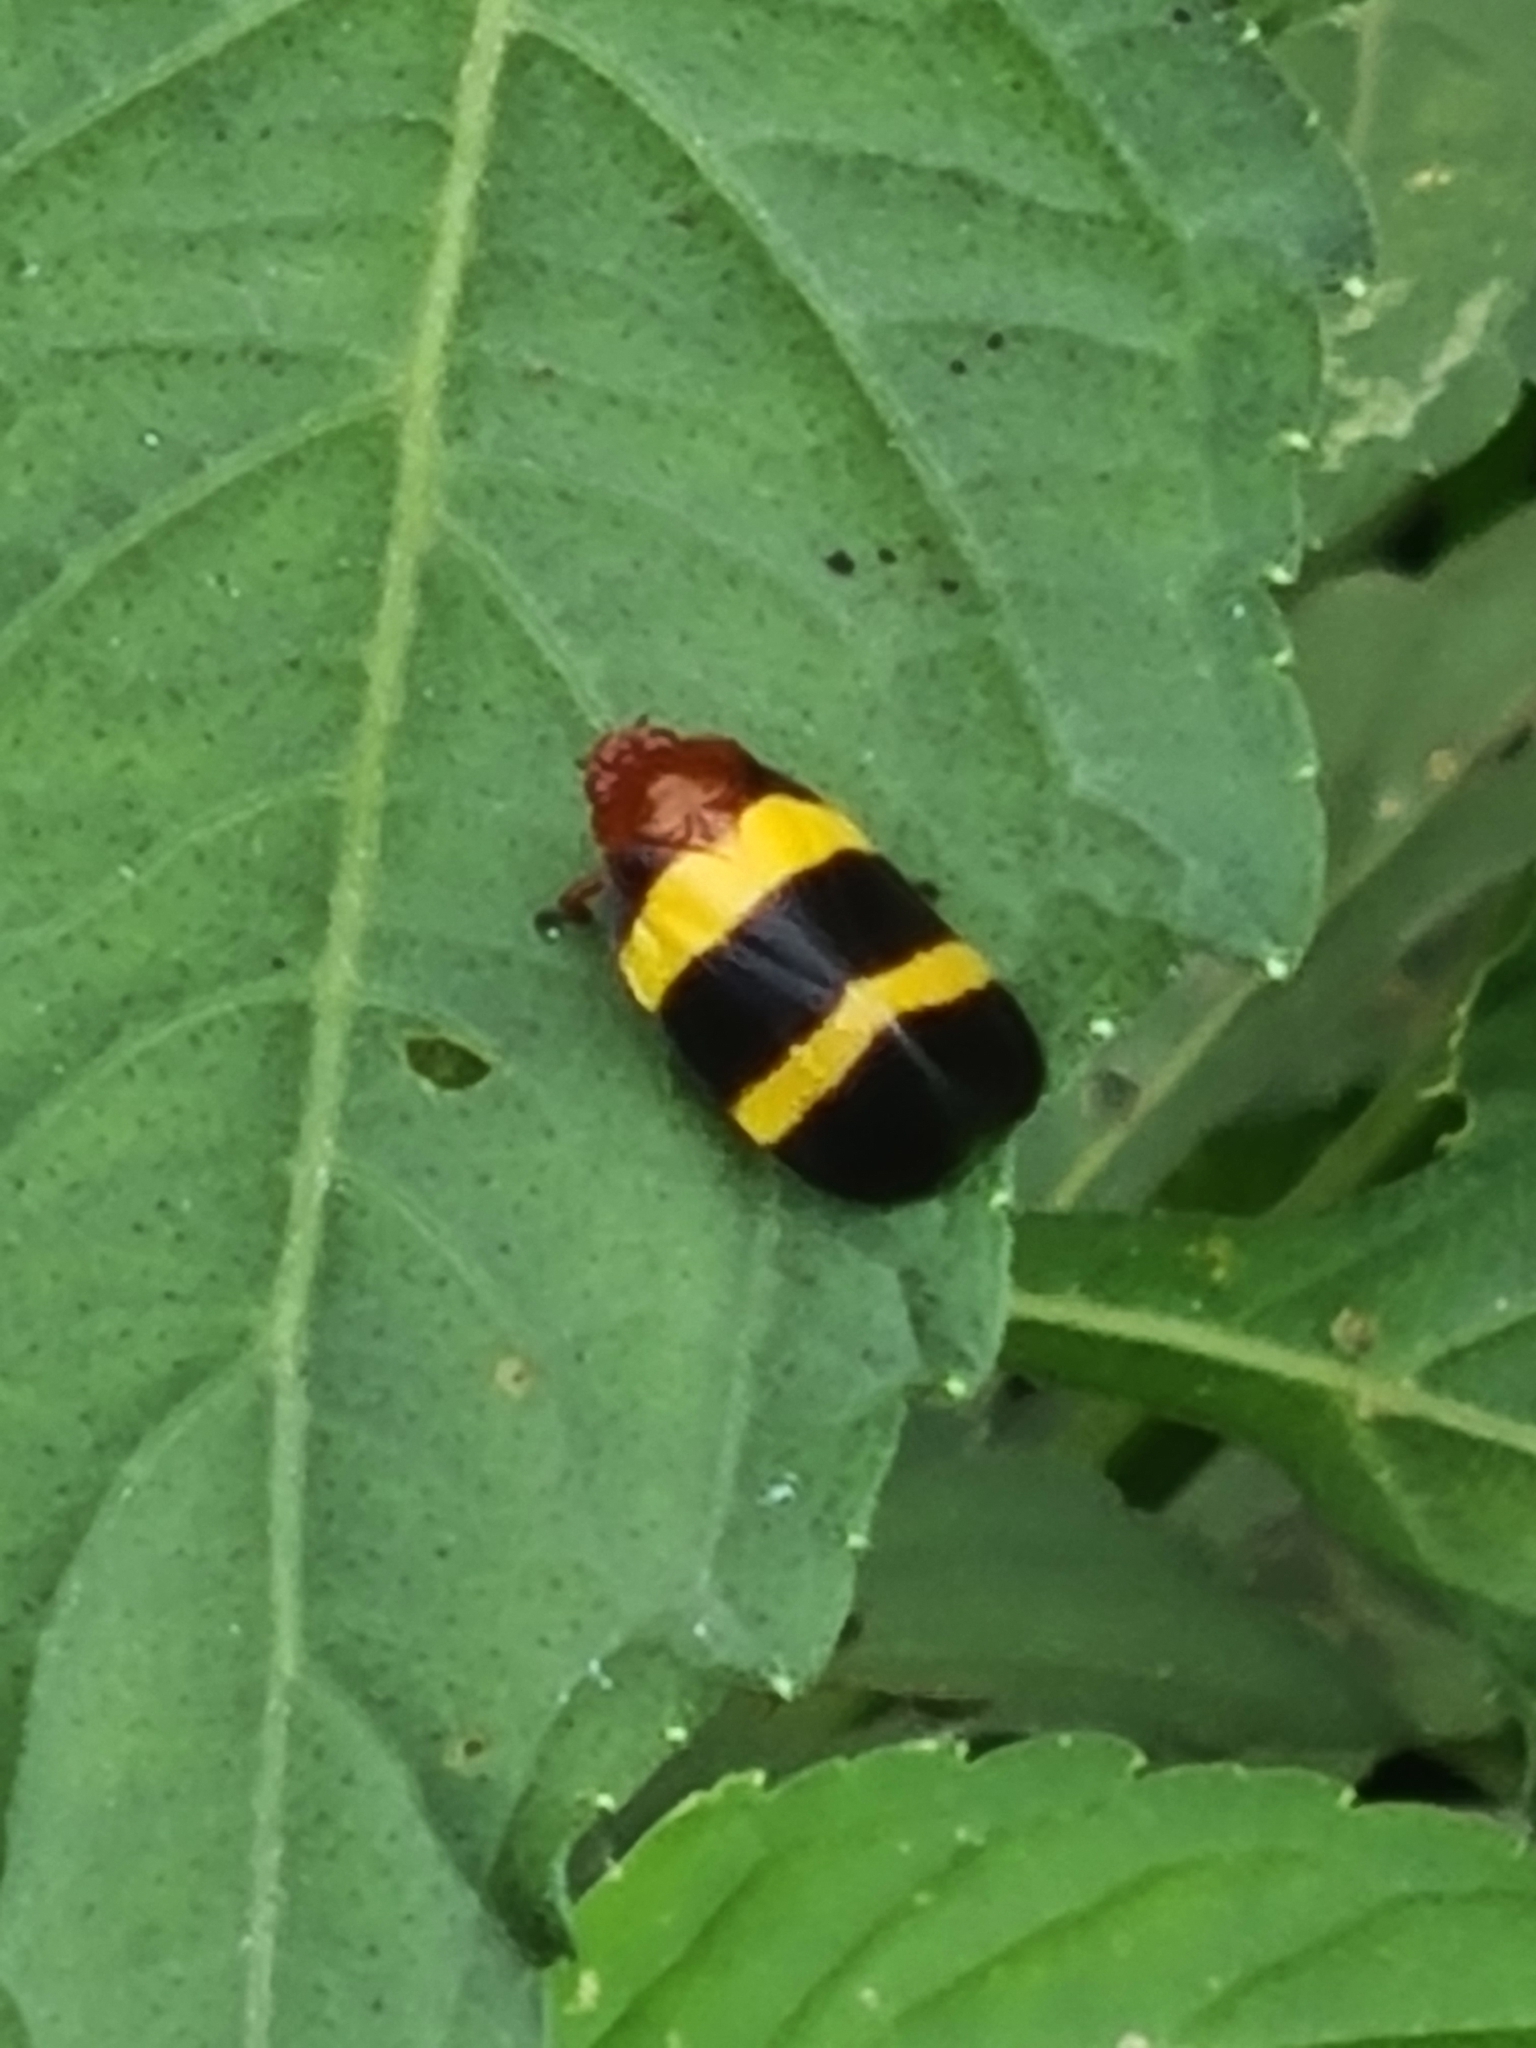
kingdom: Animalia
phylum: Arthropoda
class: Insecta
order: Hemiptera
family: Cercopidae
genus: Sphenorhina
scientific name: Sphenorhina rubra
